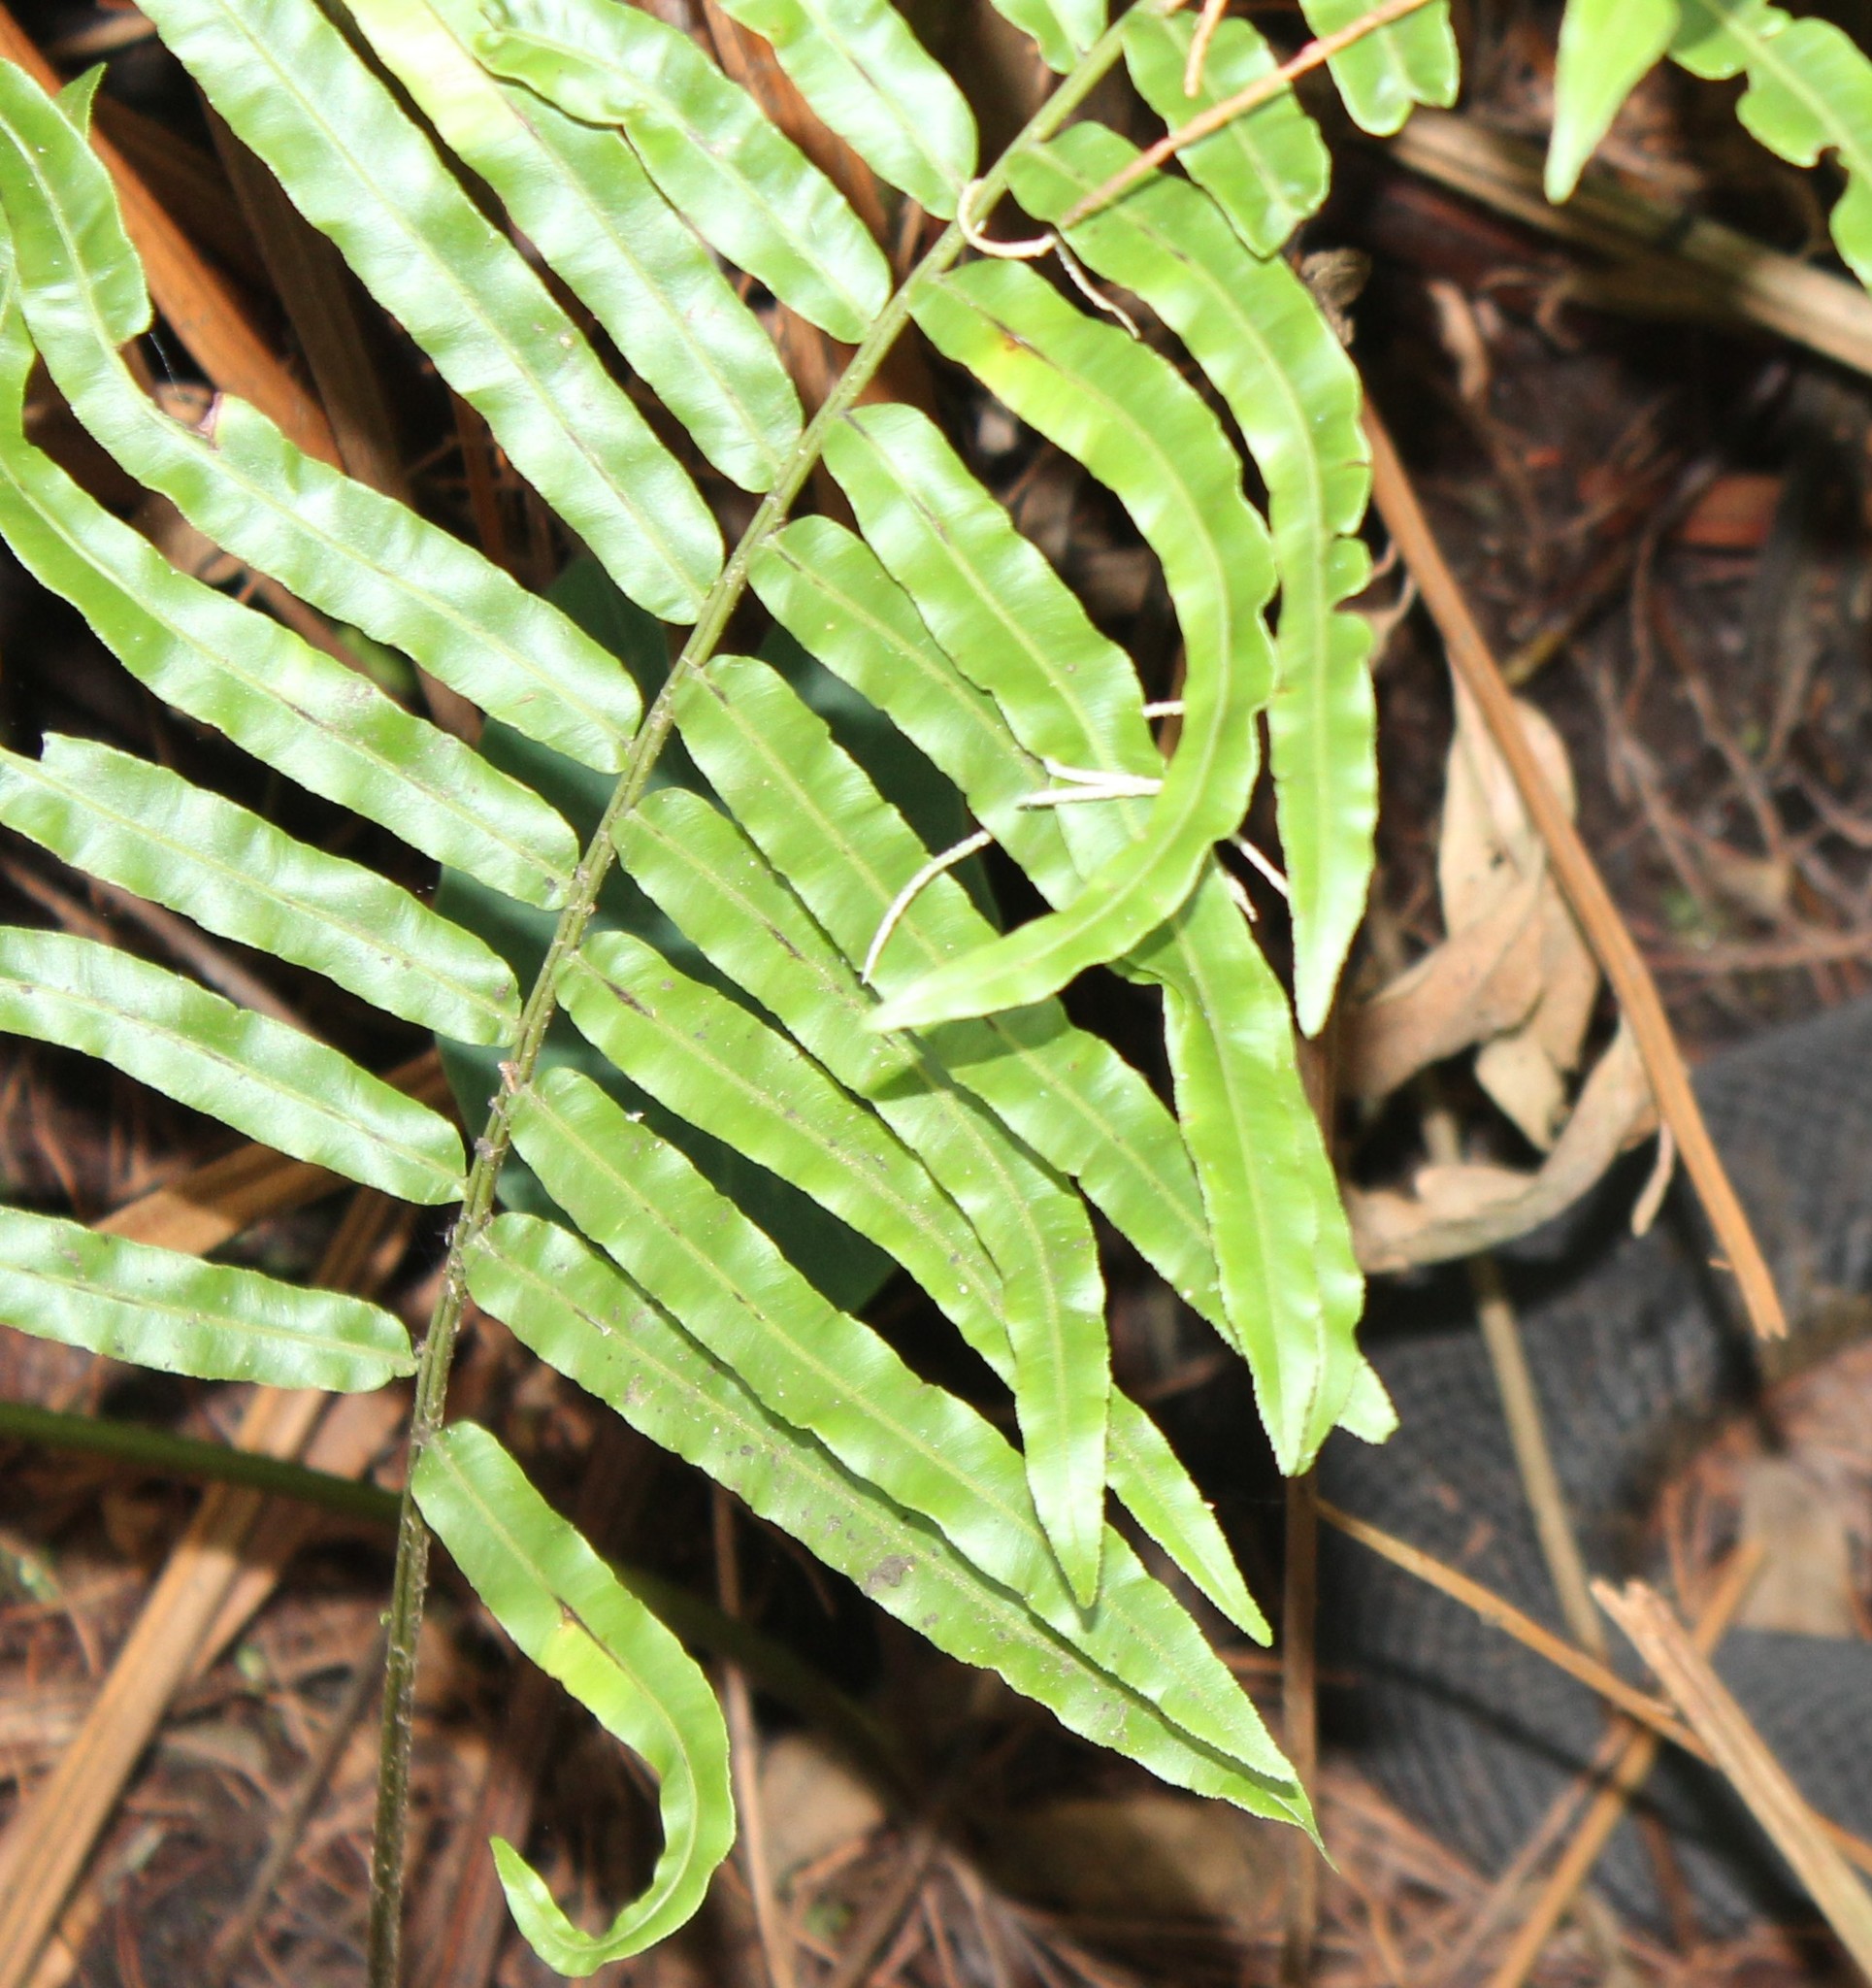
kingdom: Plantae
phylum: Tracheophyta
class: Polypodiopsida
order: Polypodiales
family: Blechnaceae
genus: Telmatoblechnum
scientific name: Telmatoblechnum serrulatum
